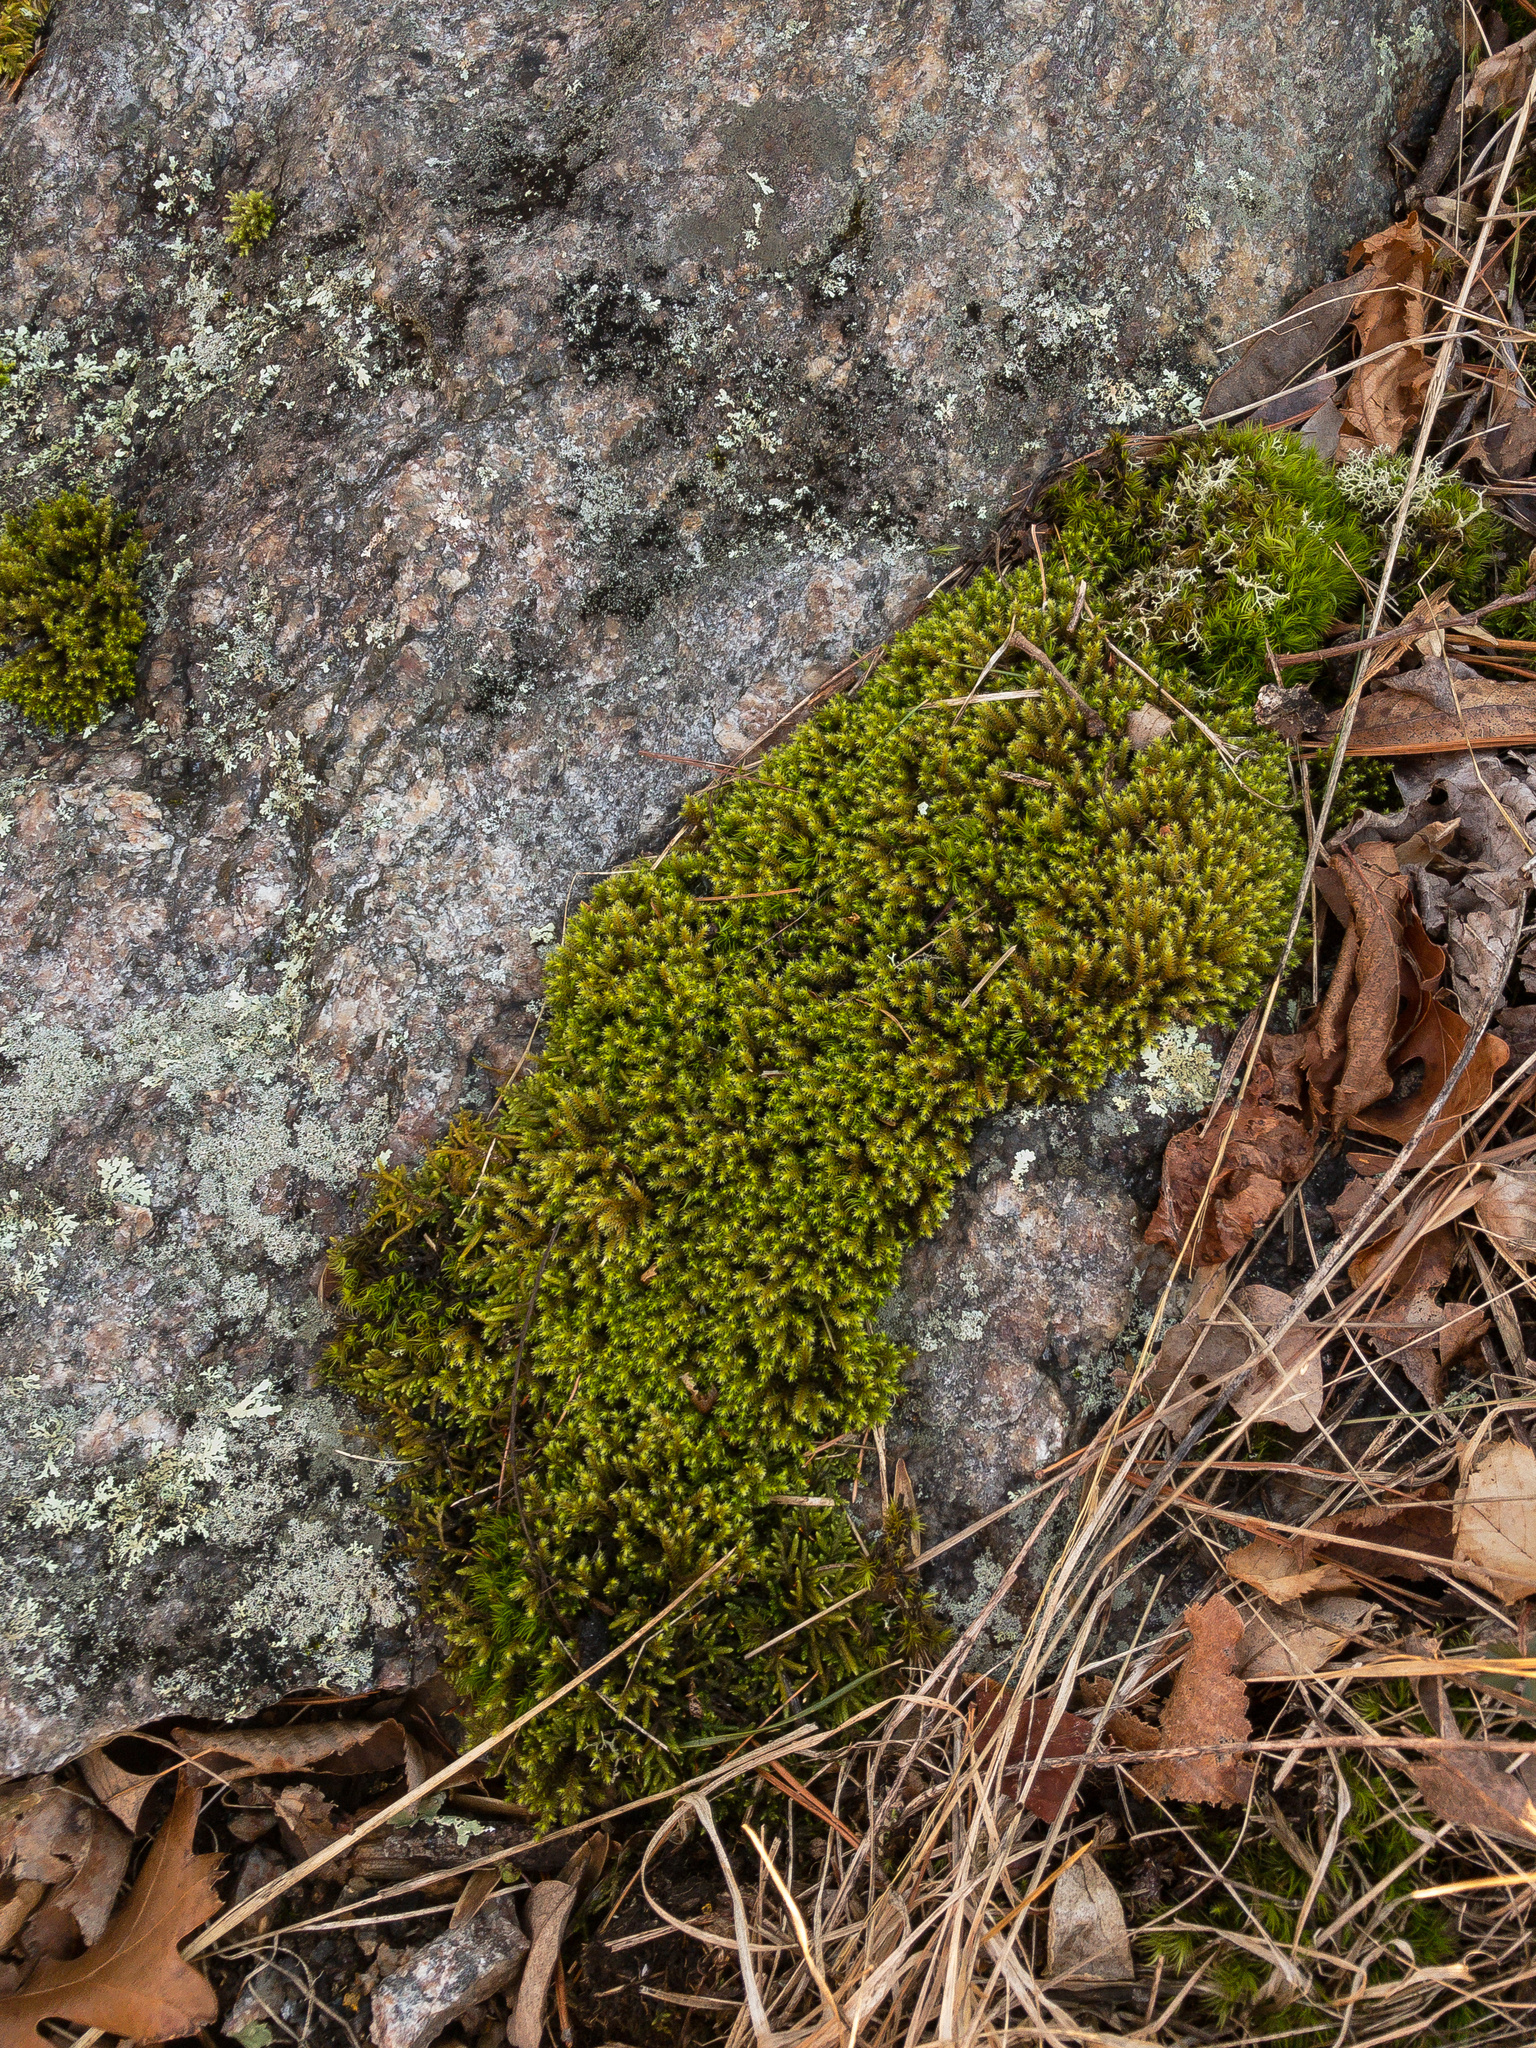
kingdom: Plantae
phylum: Bryophyta
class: Bryopsida
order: Hedwigiales
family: Hedwigiaceae
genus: Hedwigia
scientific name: Hedwigia ciliata
